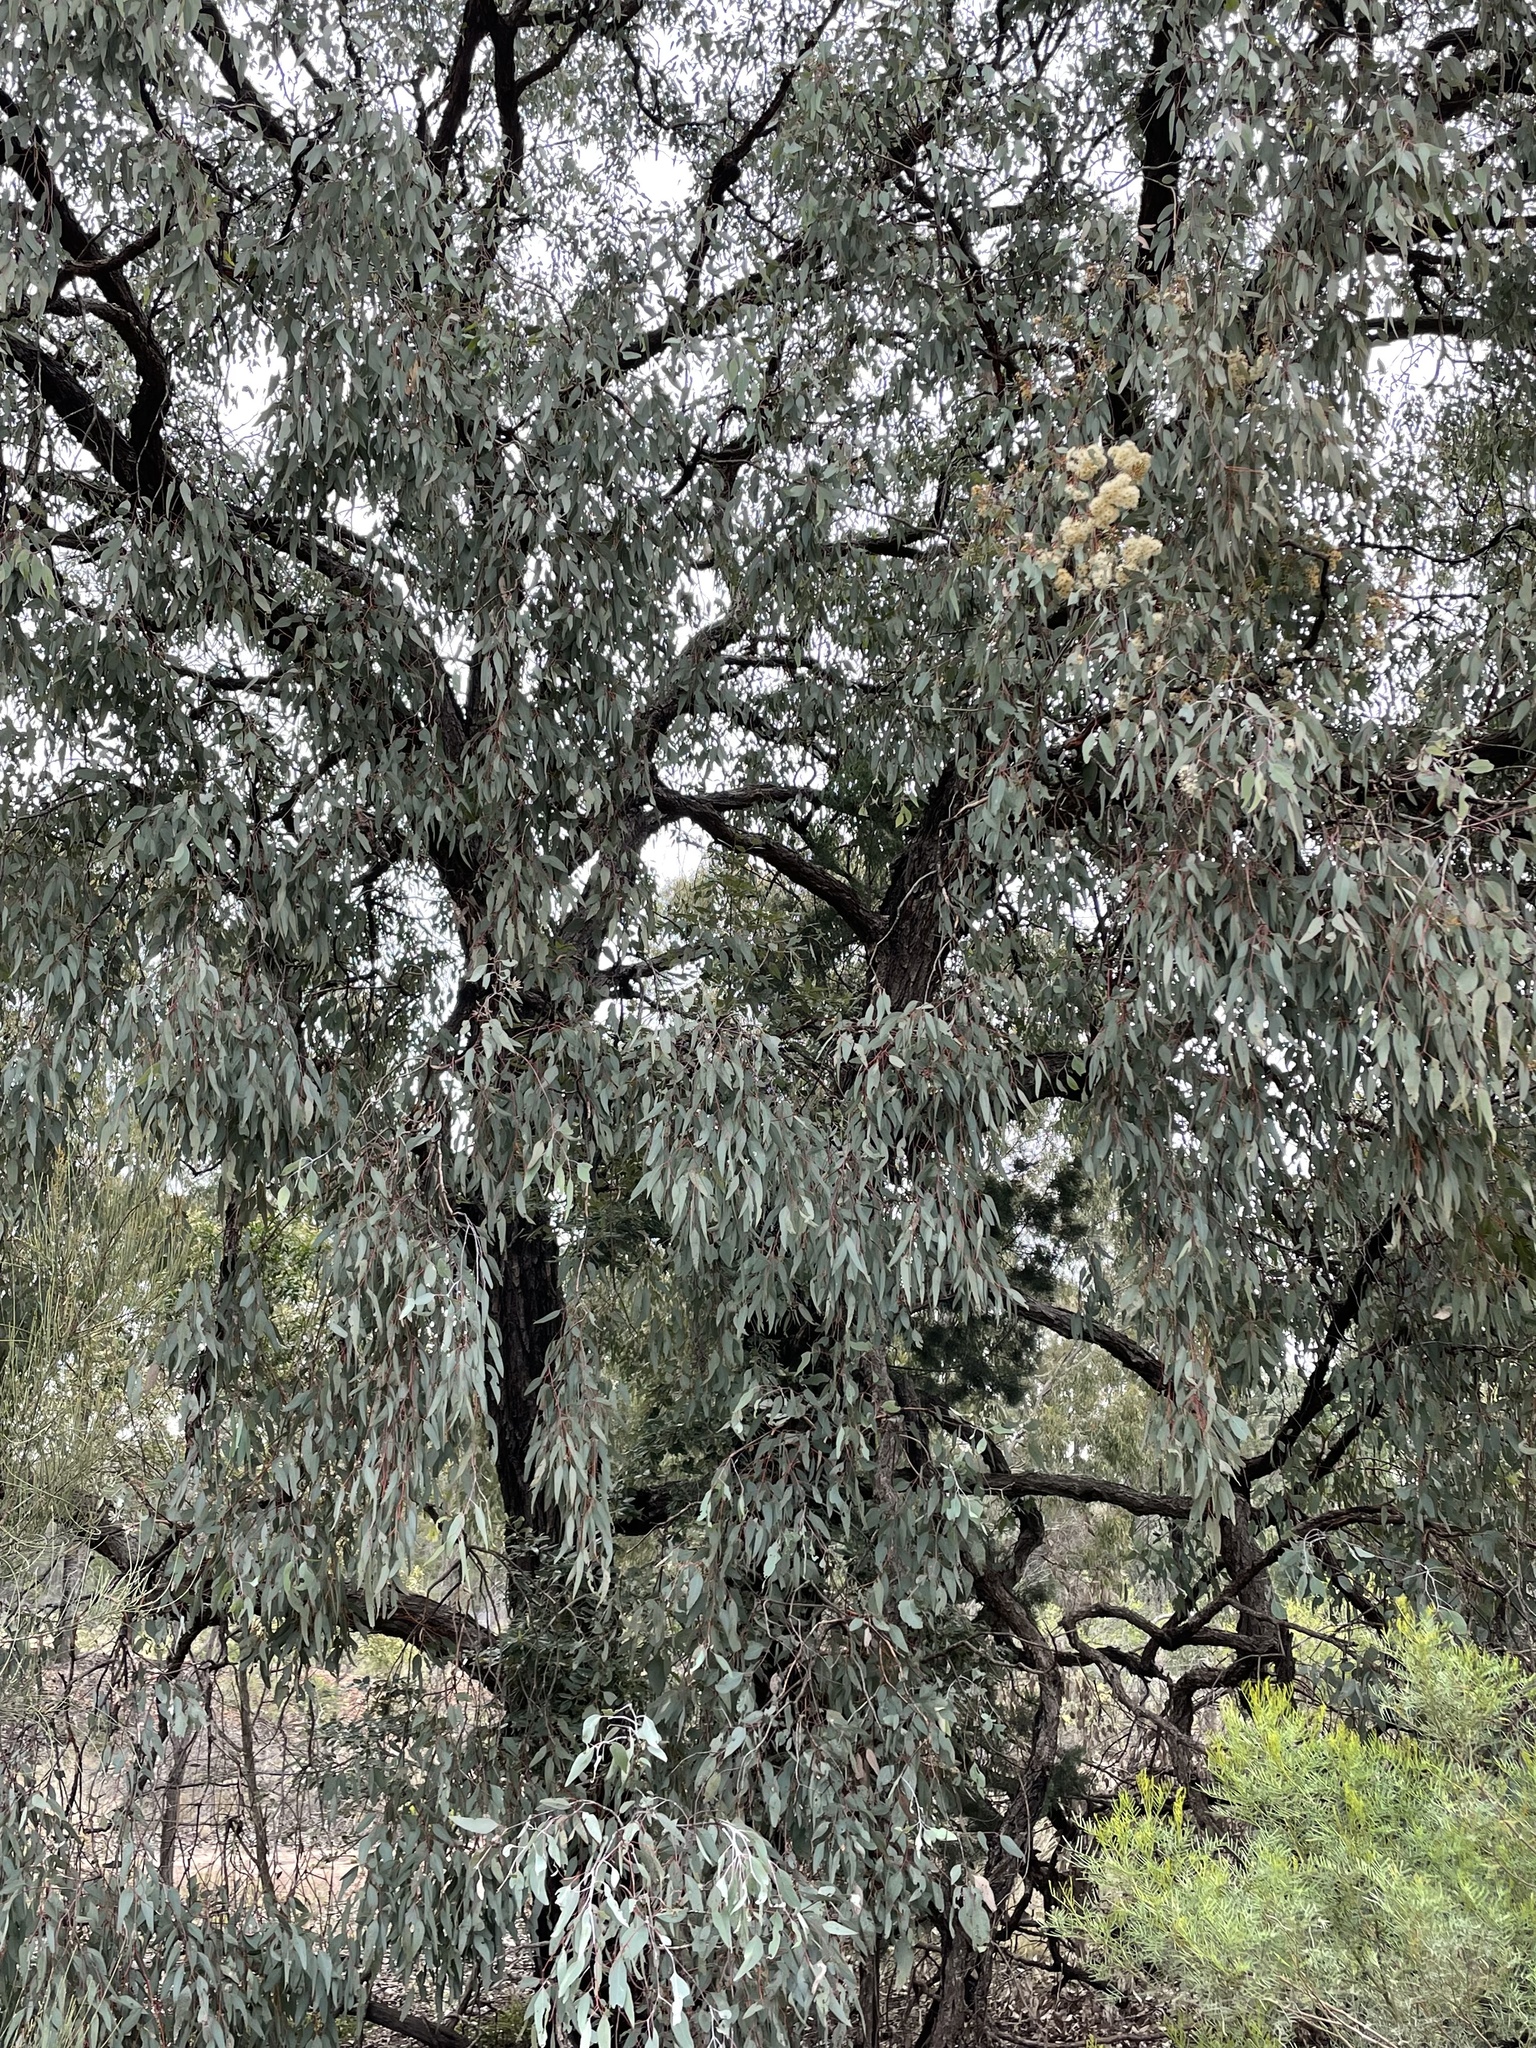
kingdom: Plantae
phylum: Tracheophyta
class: Magnoliopsida
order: Myrtales
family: Myrtaceae
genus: Eucalyptus
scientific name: Eucalyptus fibrosa
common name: Red ironbark
